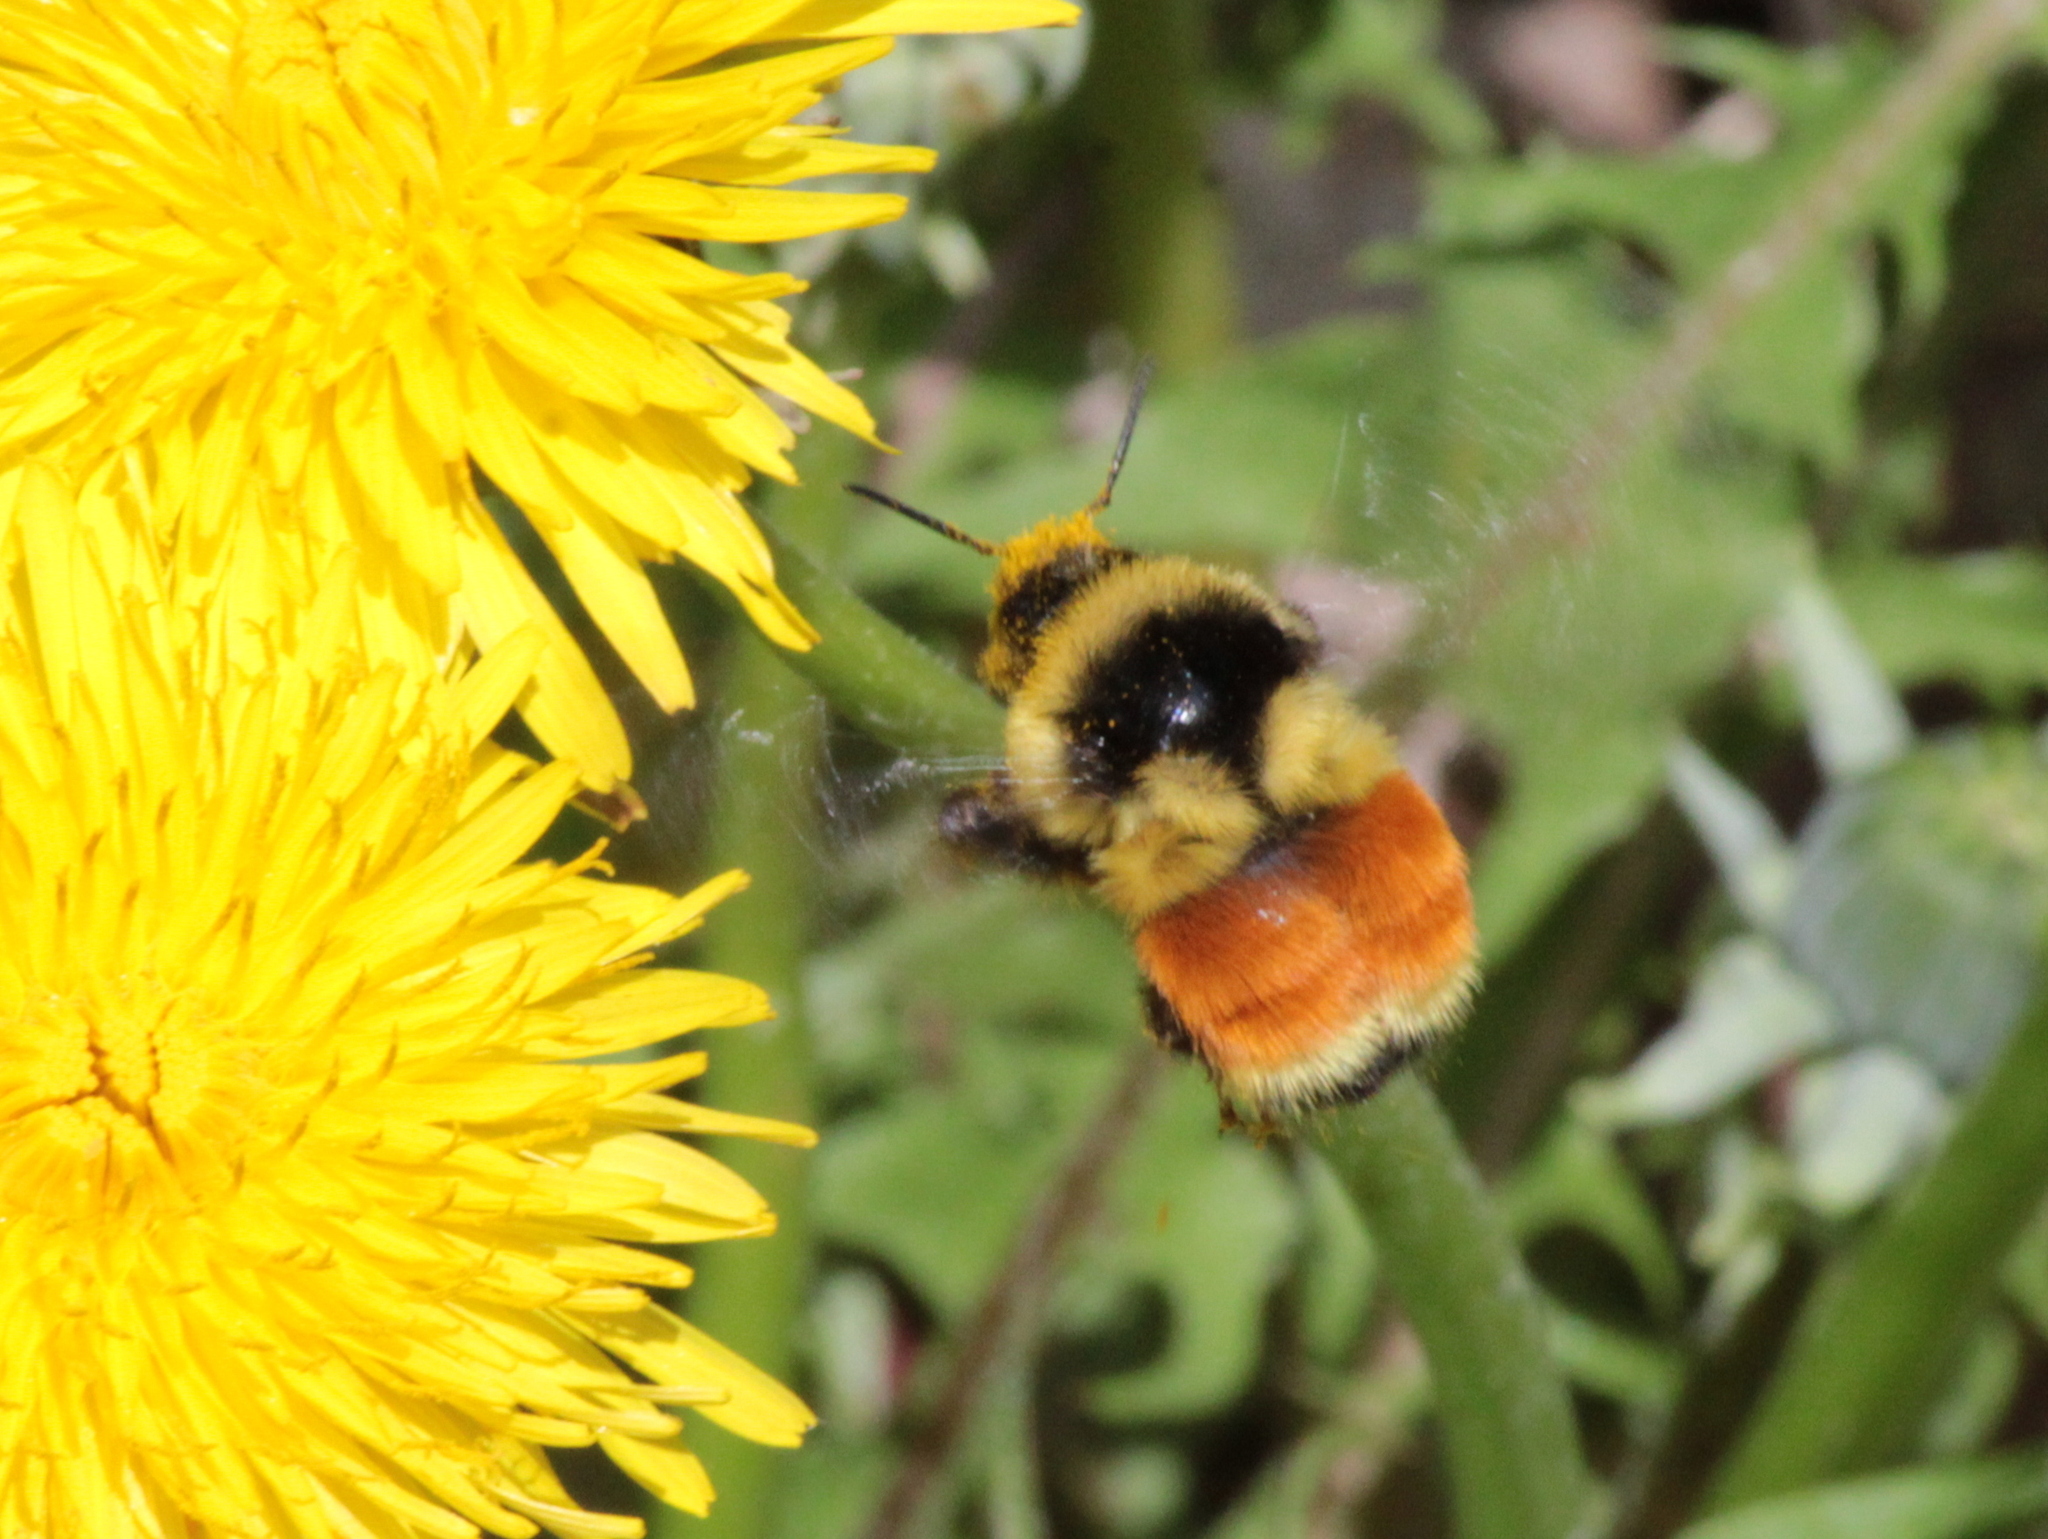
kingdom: Animalia
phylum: Arthropoda
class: Insecta
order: Hymenoptera
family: Apidae
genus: Bombus
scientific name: Bombus ternarius
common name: Tri-colored bumble bee
